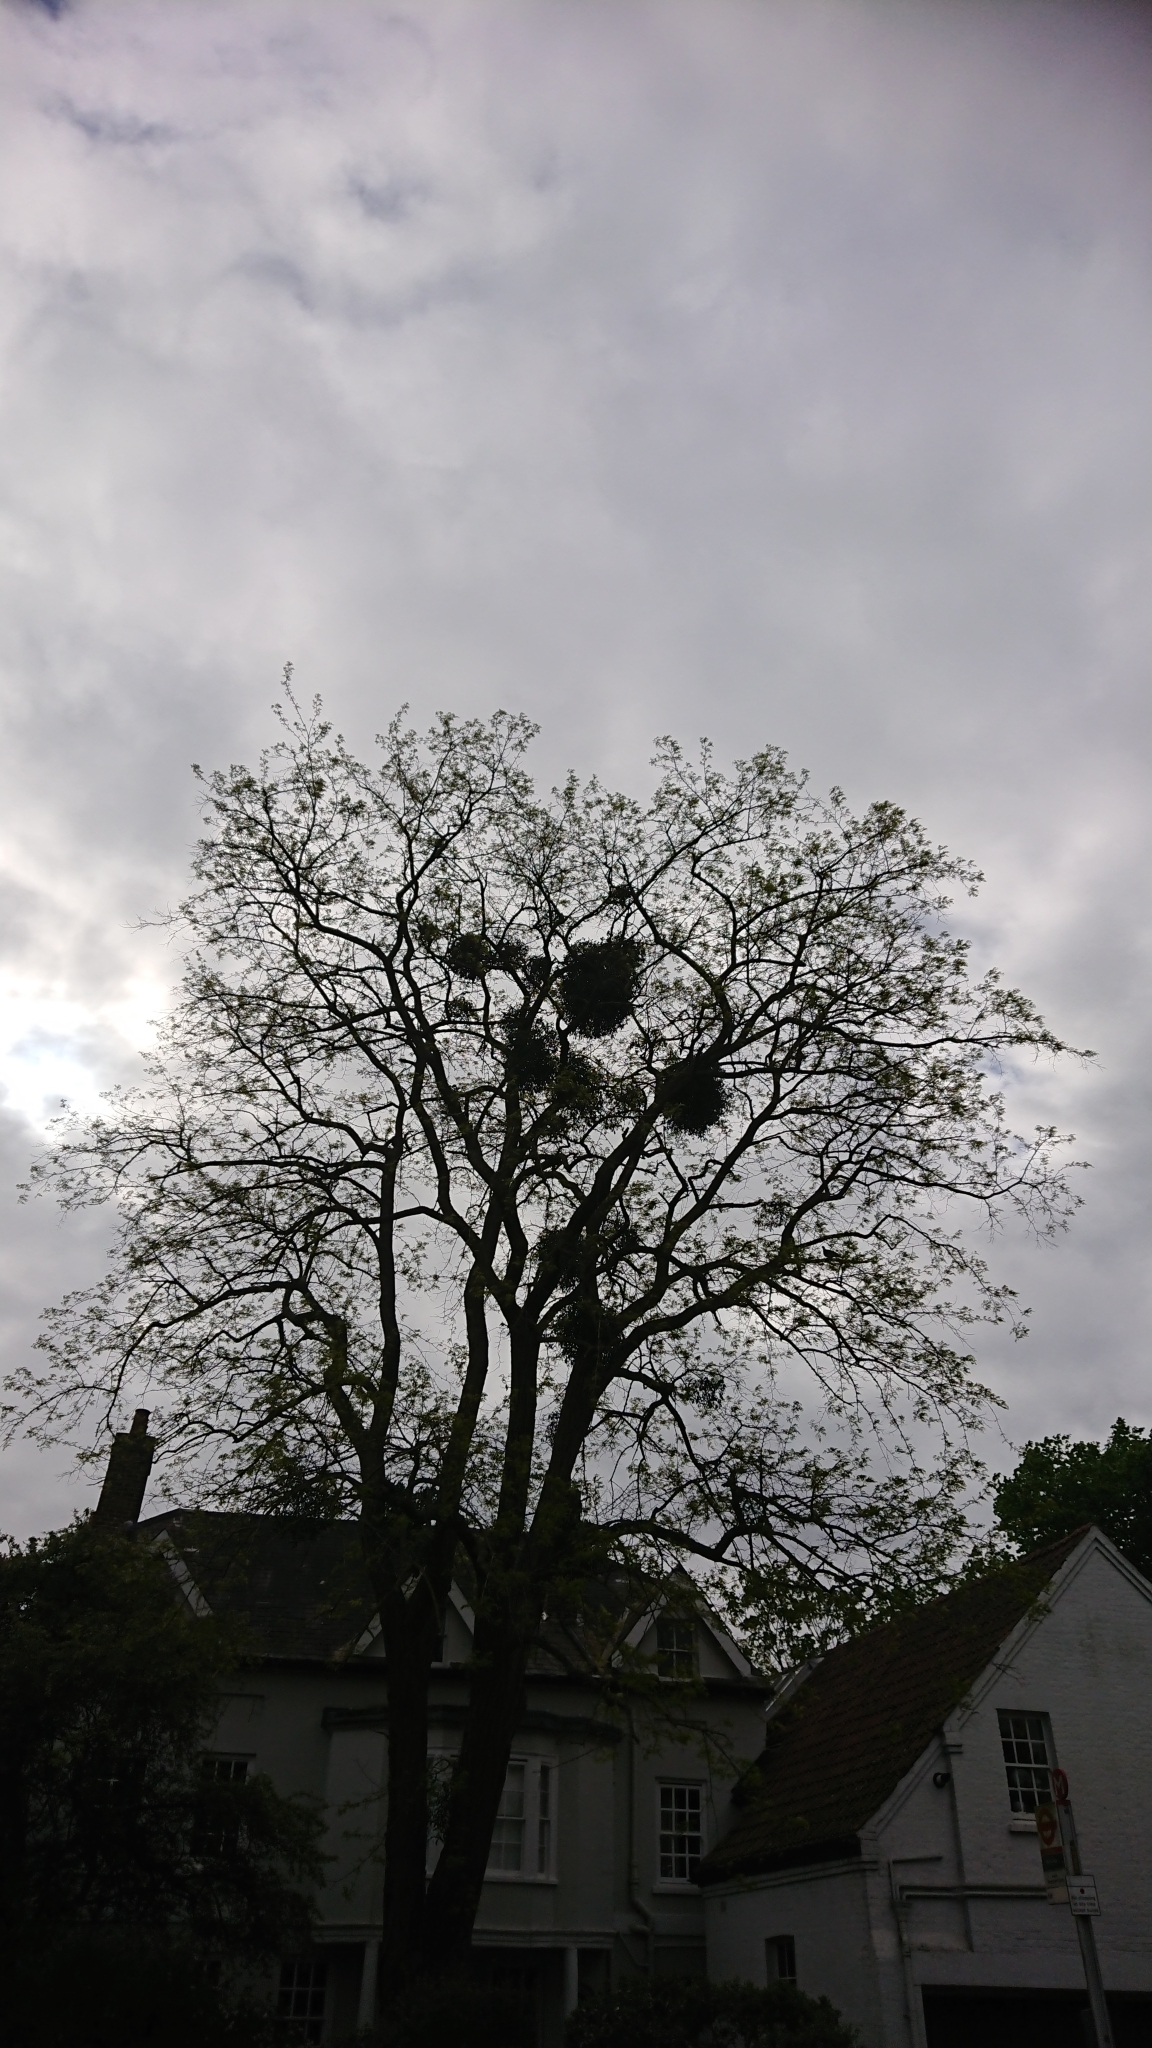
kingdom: Plantae
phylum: Tracheophyta
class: Magnoliopsida
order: Santalales
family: Viscaceae
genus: Viscum
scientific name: Viscum album
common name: Mistletoe
